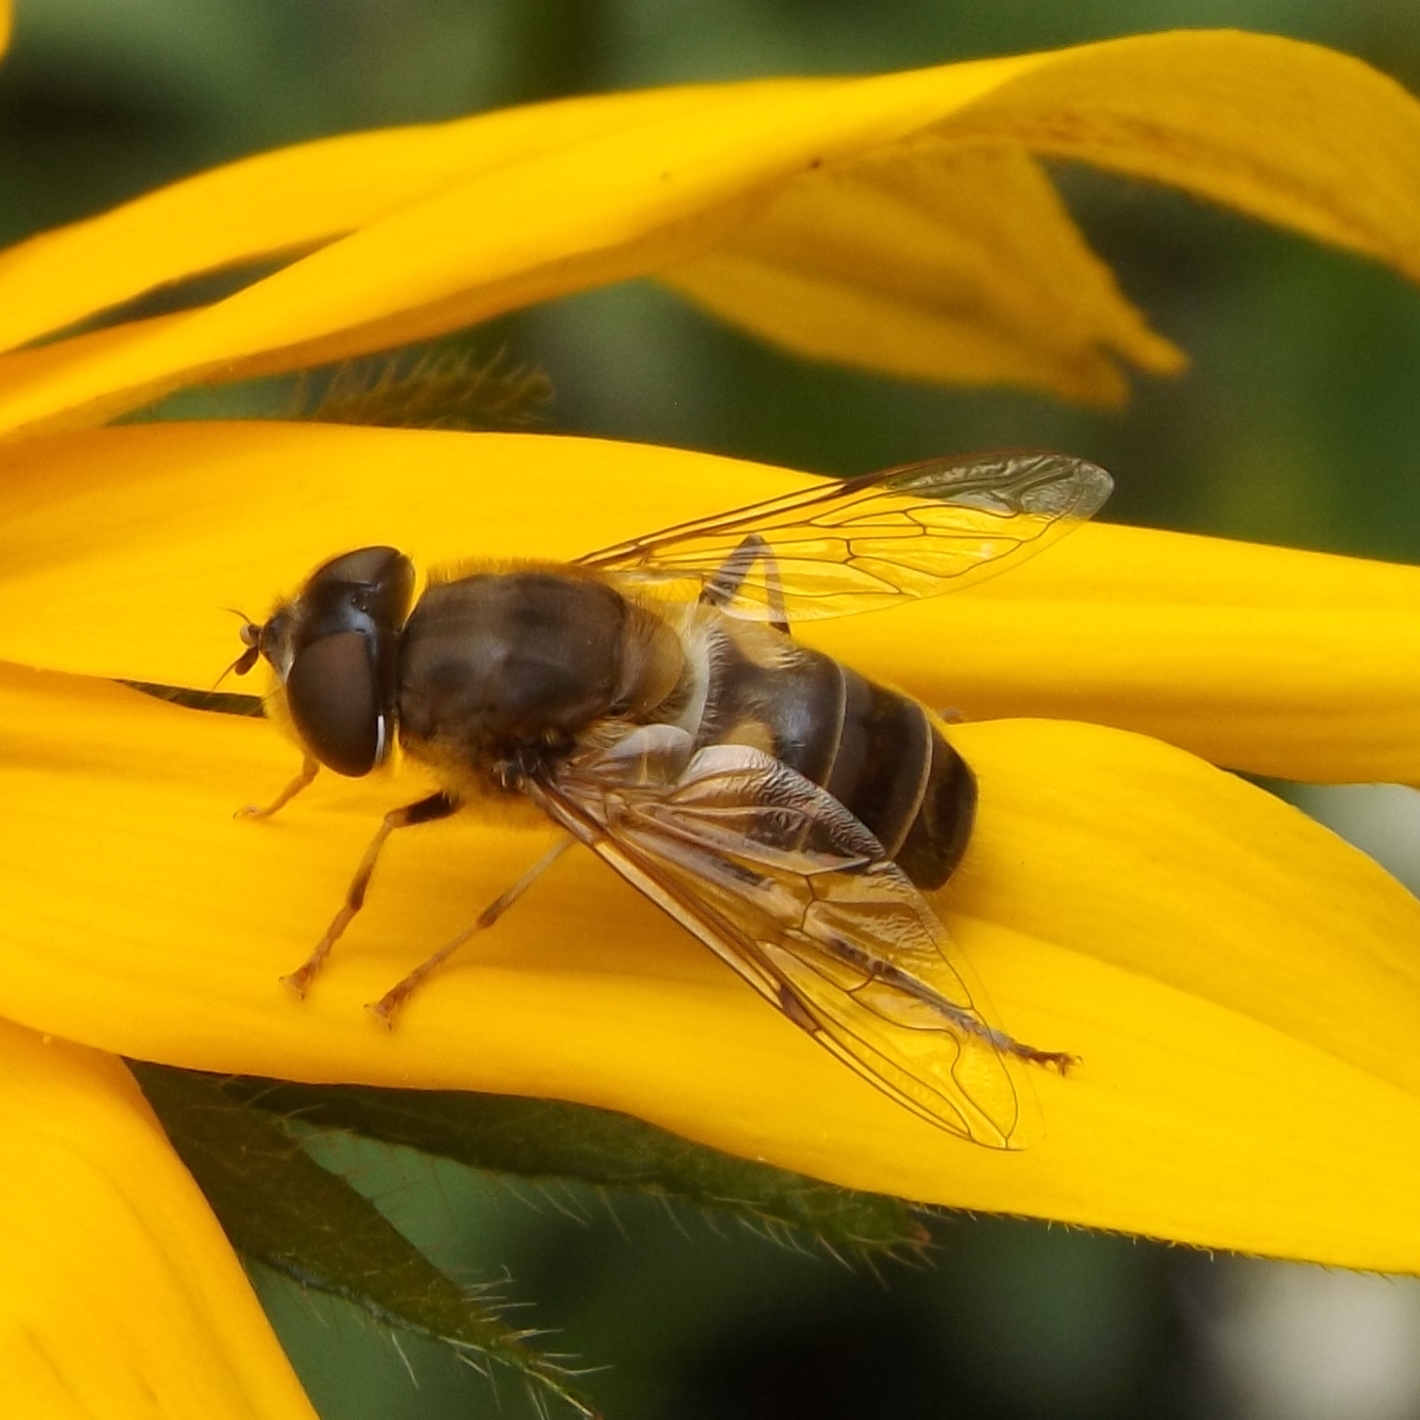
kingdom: Animalia
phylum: Arthropoda
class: Insecta
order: Diptera
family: Syrphidae
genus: Eristalis
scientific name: Eristalis pertinax
